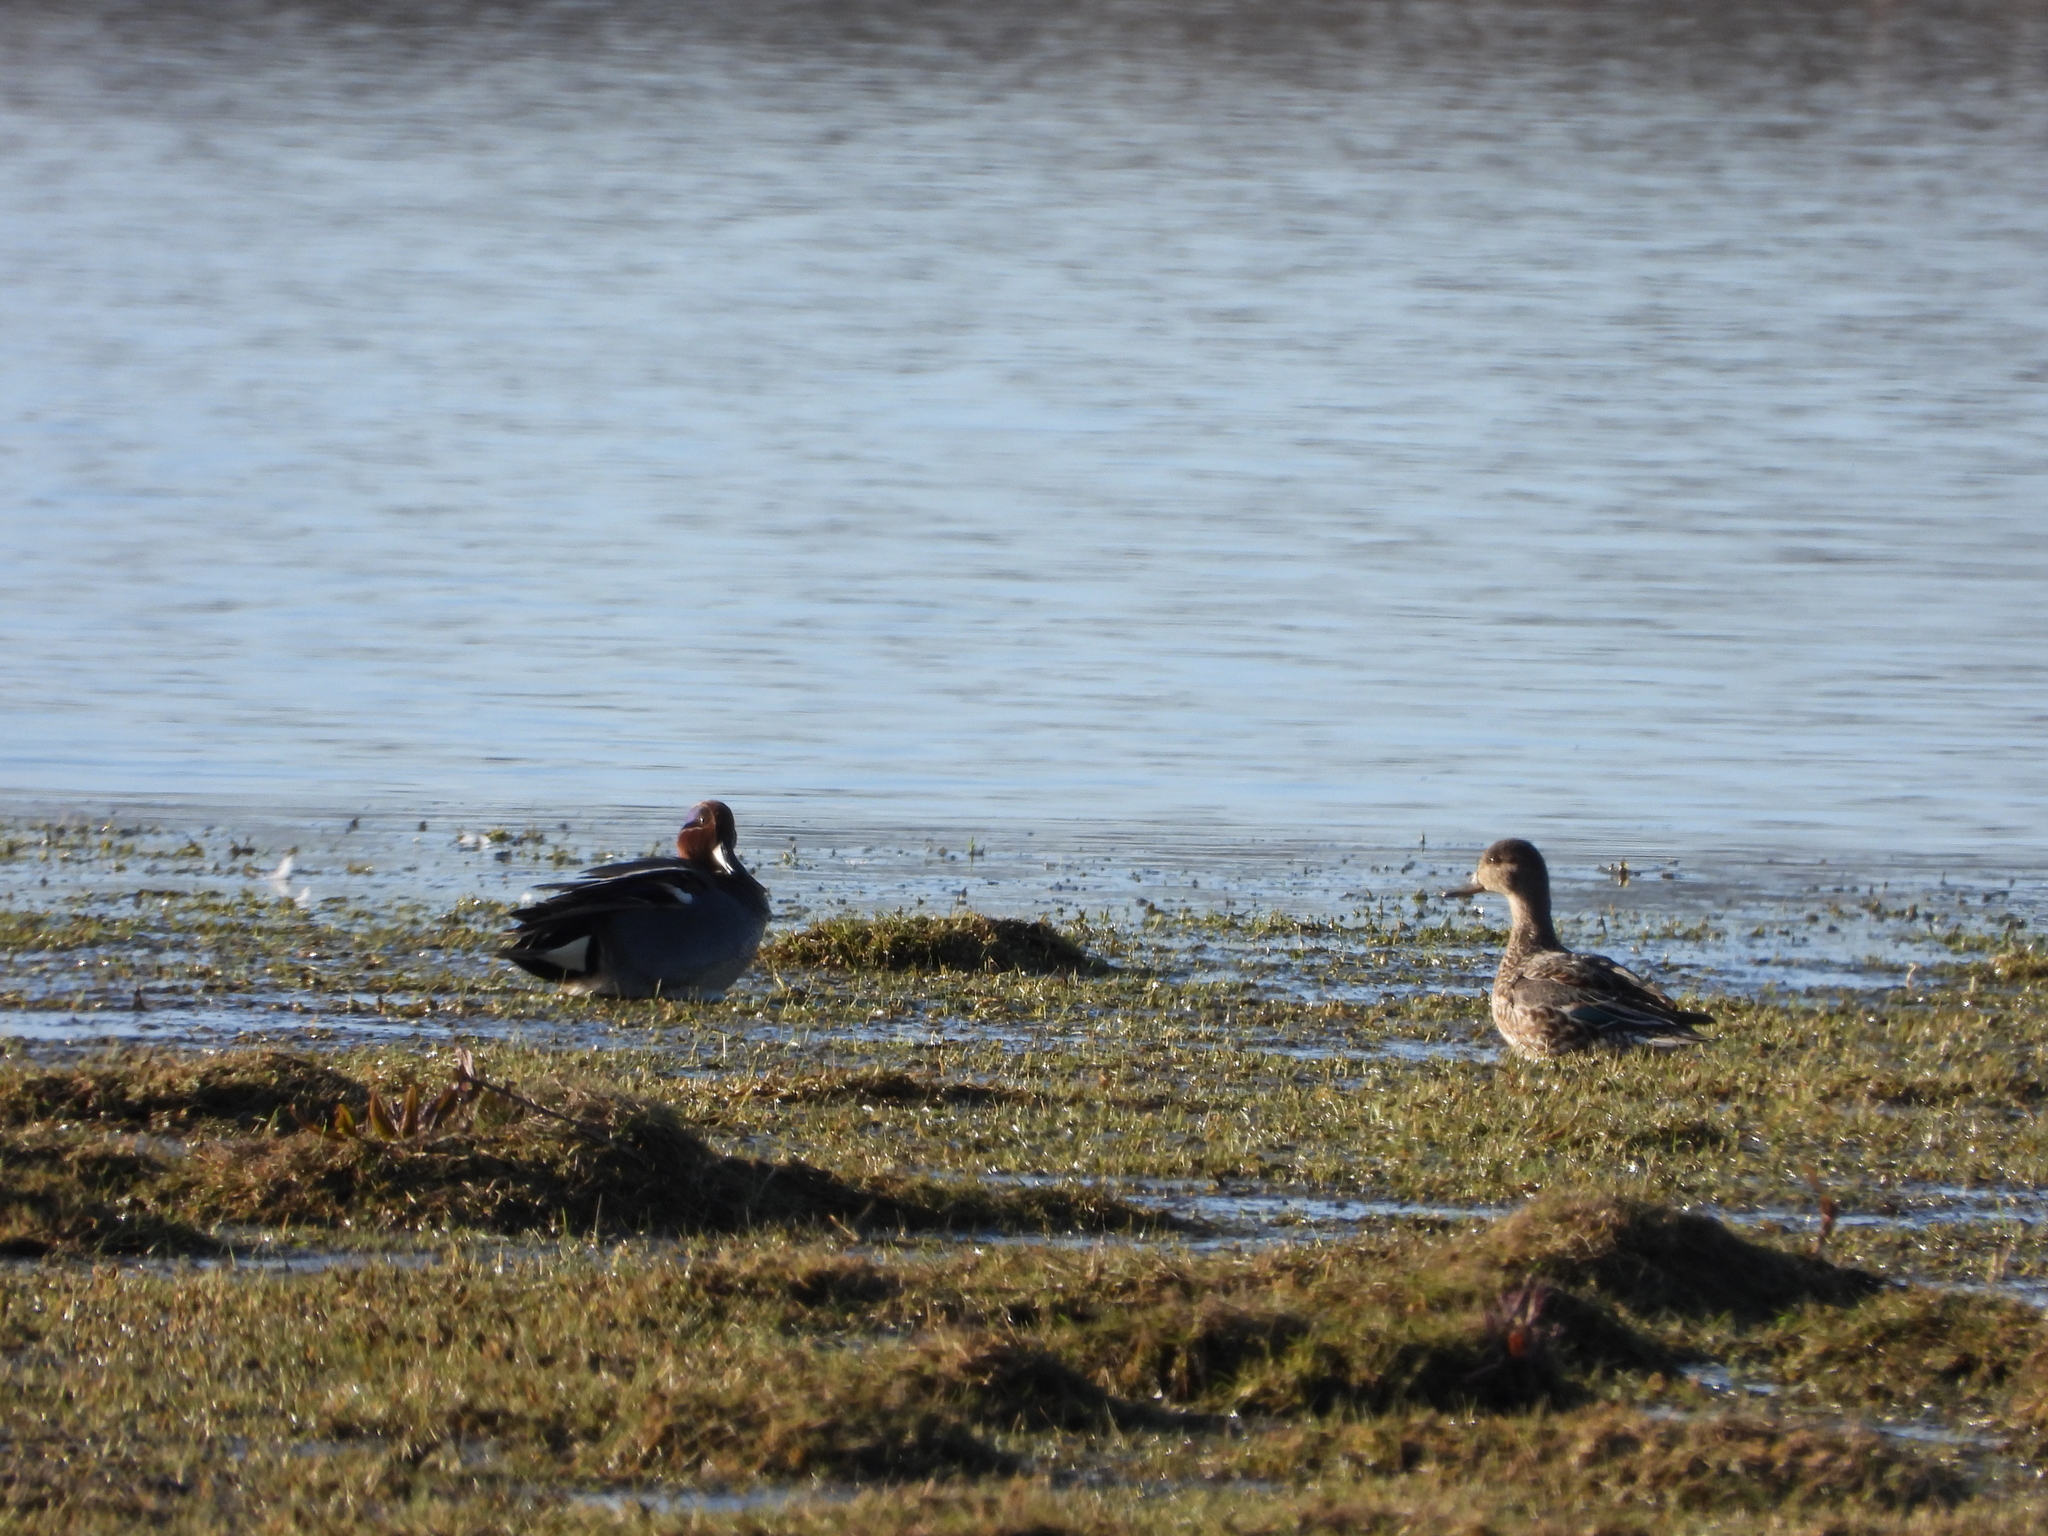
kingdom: Animalia
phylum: Chordata
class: Aves
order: Anseriformes
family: Anatidae
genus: Anas
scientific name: Anas crecca
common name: Eurasian teal
